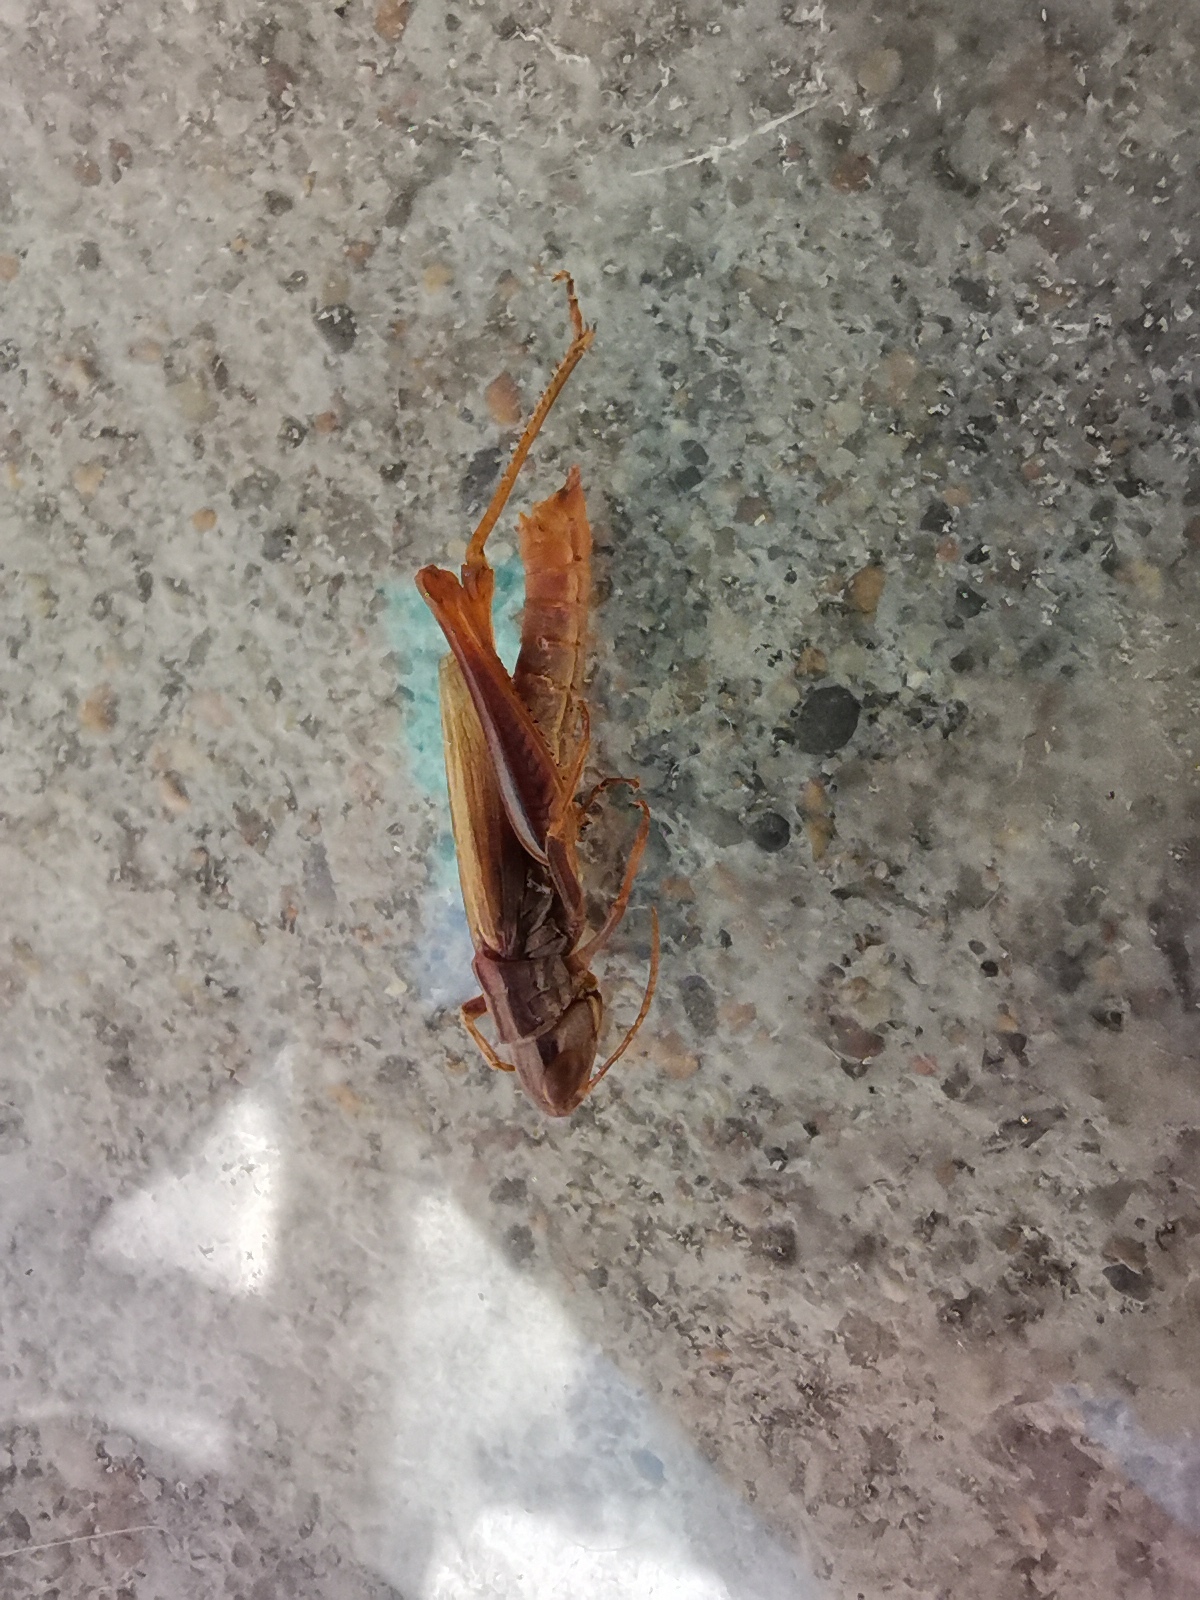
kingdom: Animalia
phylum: Arthropoda
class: Insecta
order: Orthoptera
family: Acrididae
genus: Euchorthippus
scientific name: Euchorthippus declivus
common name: Common straw grasshopper
